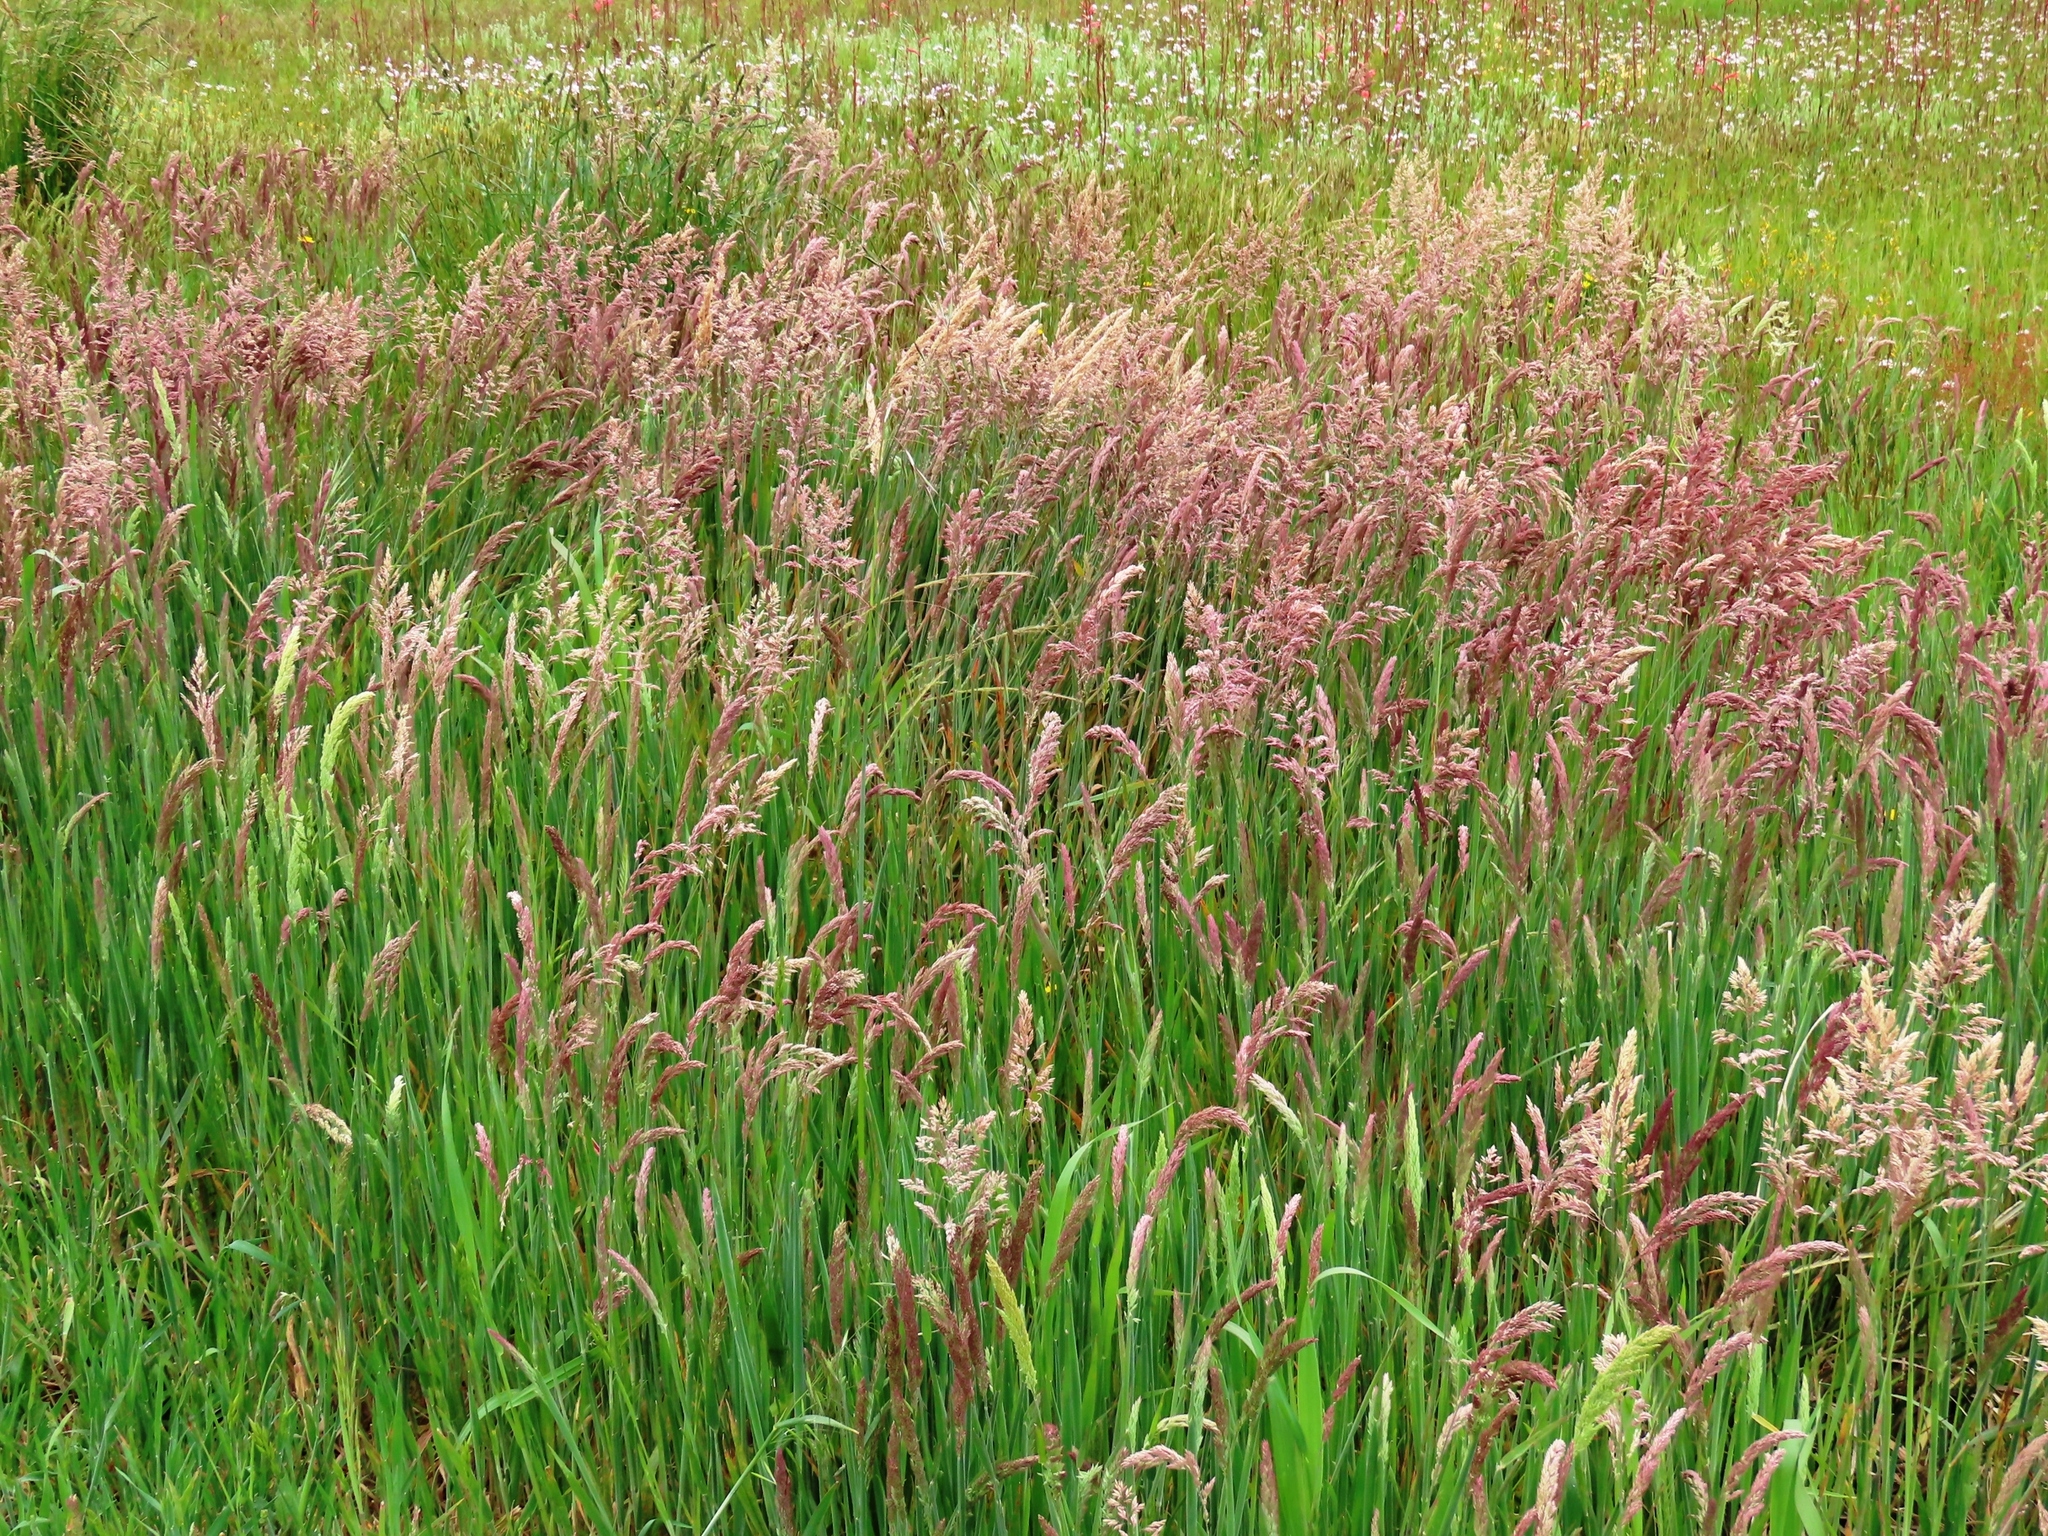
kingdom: Plantae
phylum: Tracheophyta
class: Liliopsida
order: Poales
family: Poaceae
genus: Holcus
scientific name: Holcus lanatus
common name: Yorkshire-fog
